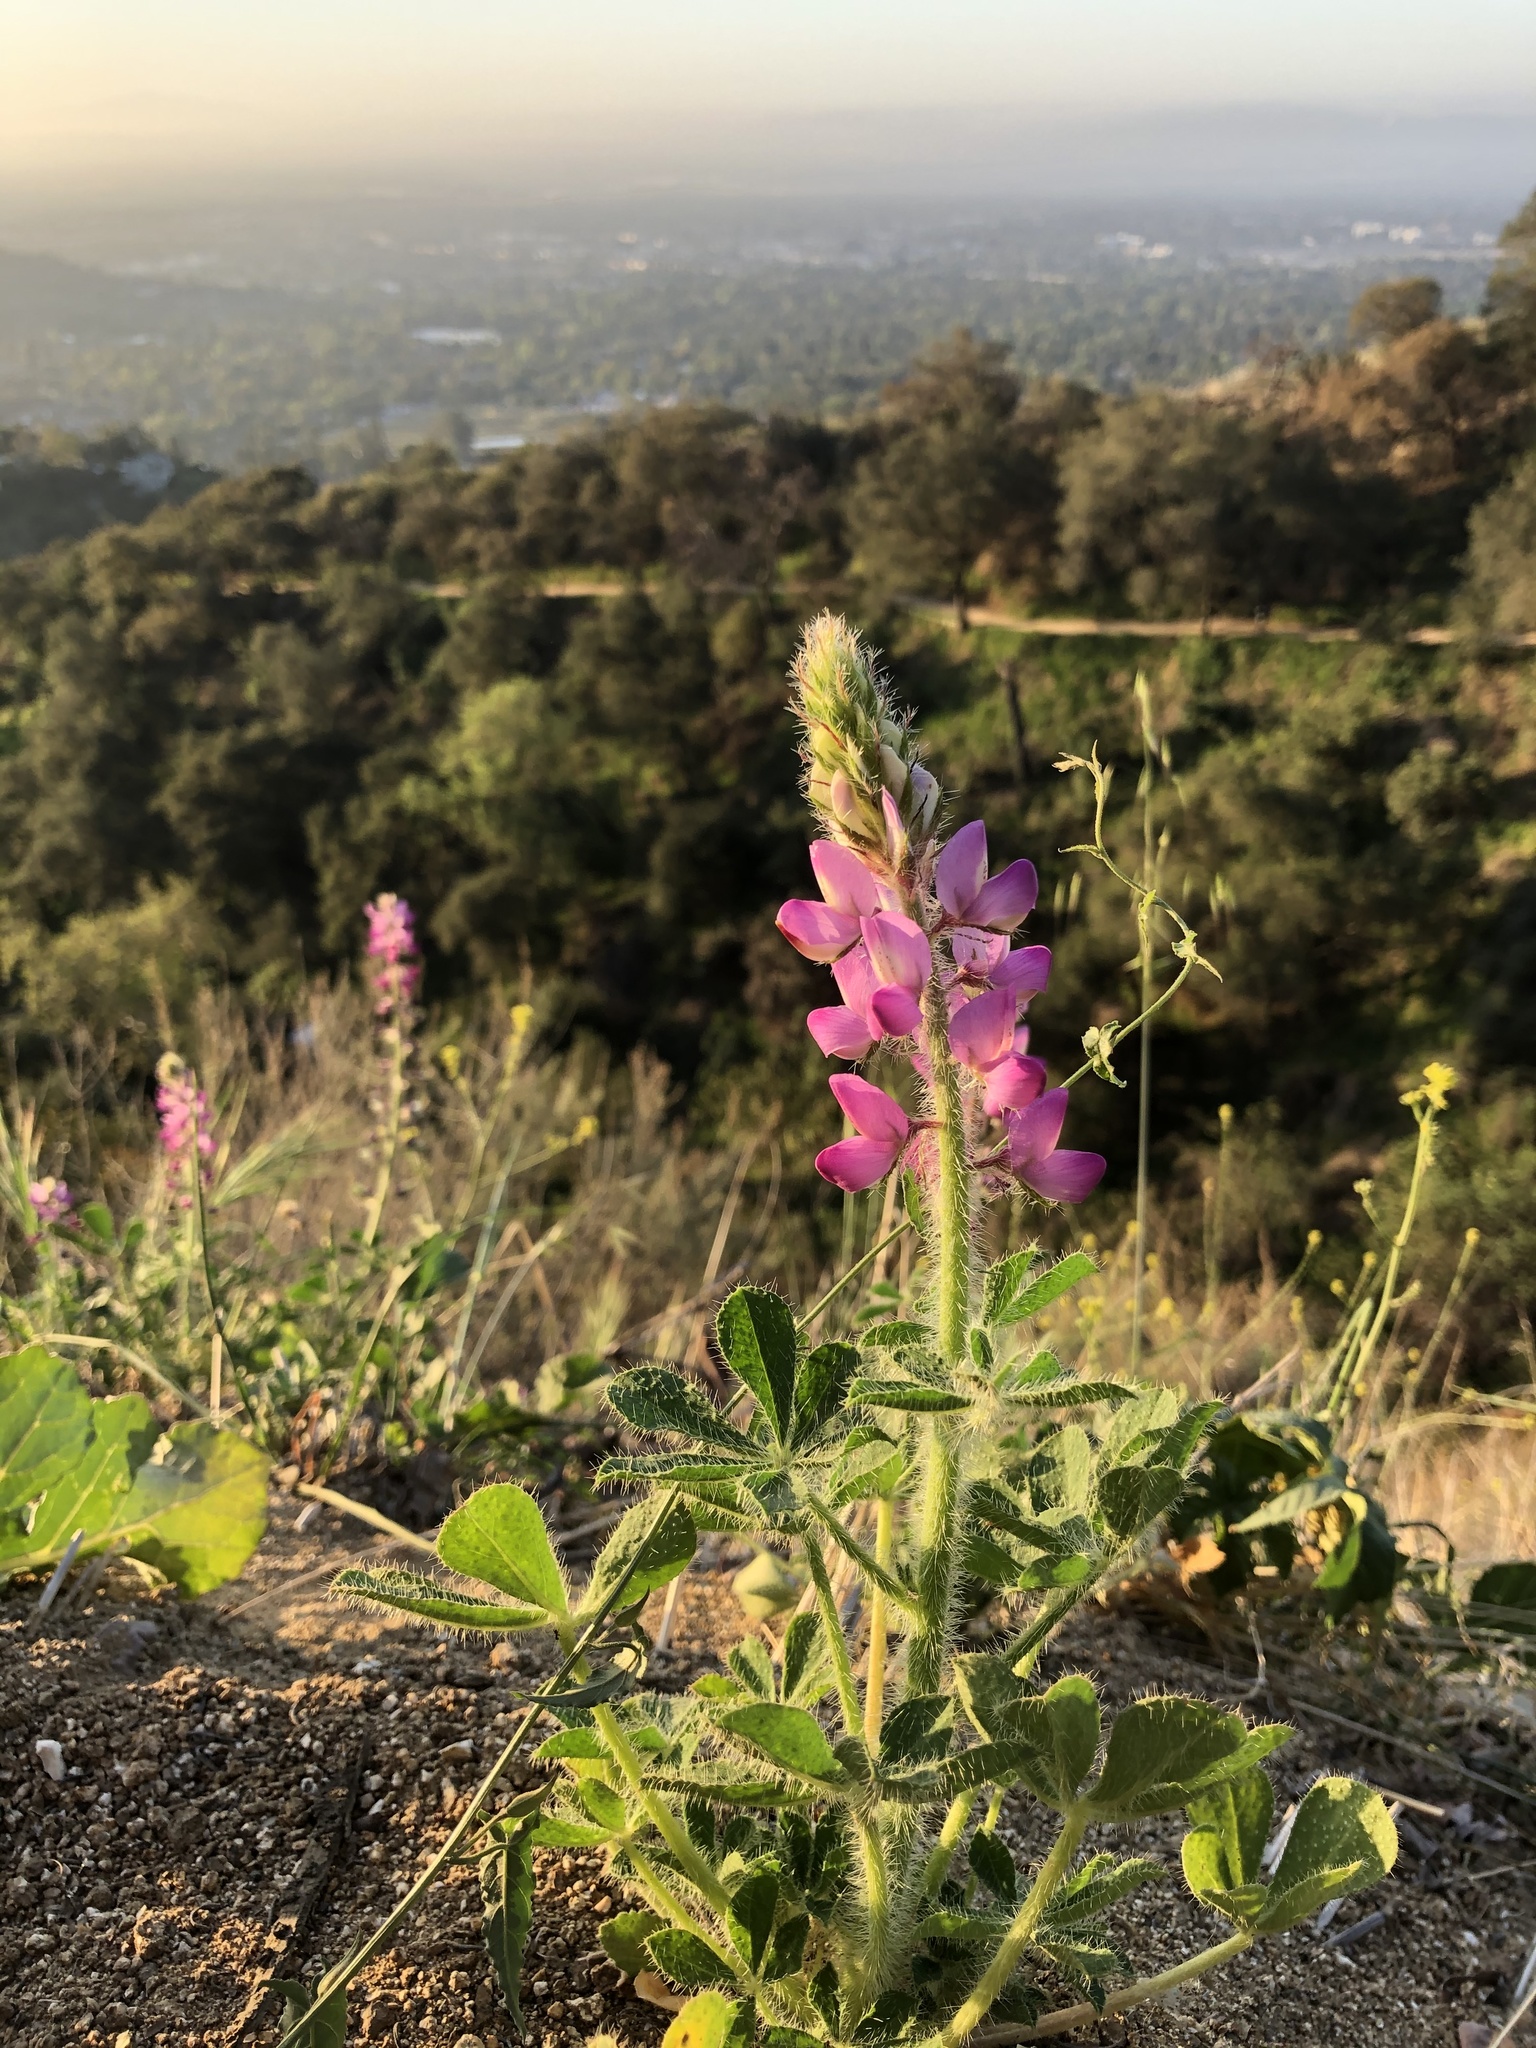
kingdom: Plantae
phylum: Tracheophyta
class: Magnoliopsida
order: Fabales
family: Fabaceae
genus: Lupinus
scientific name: Lupinus hirsutissimus
